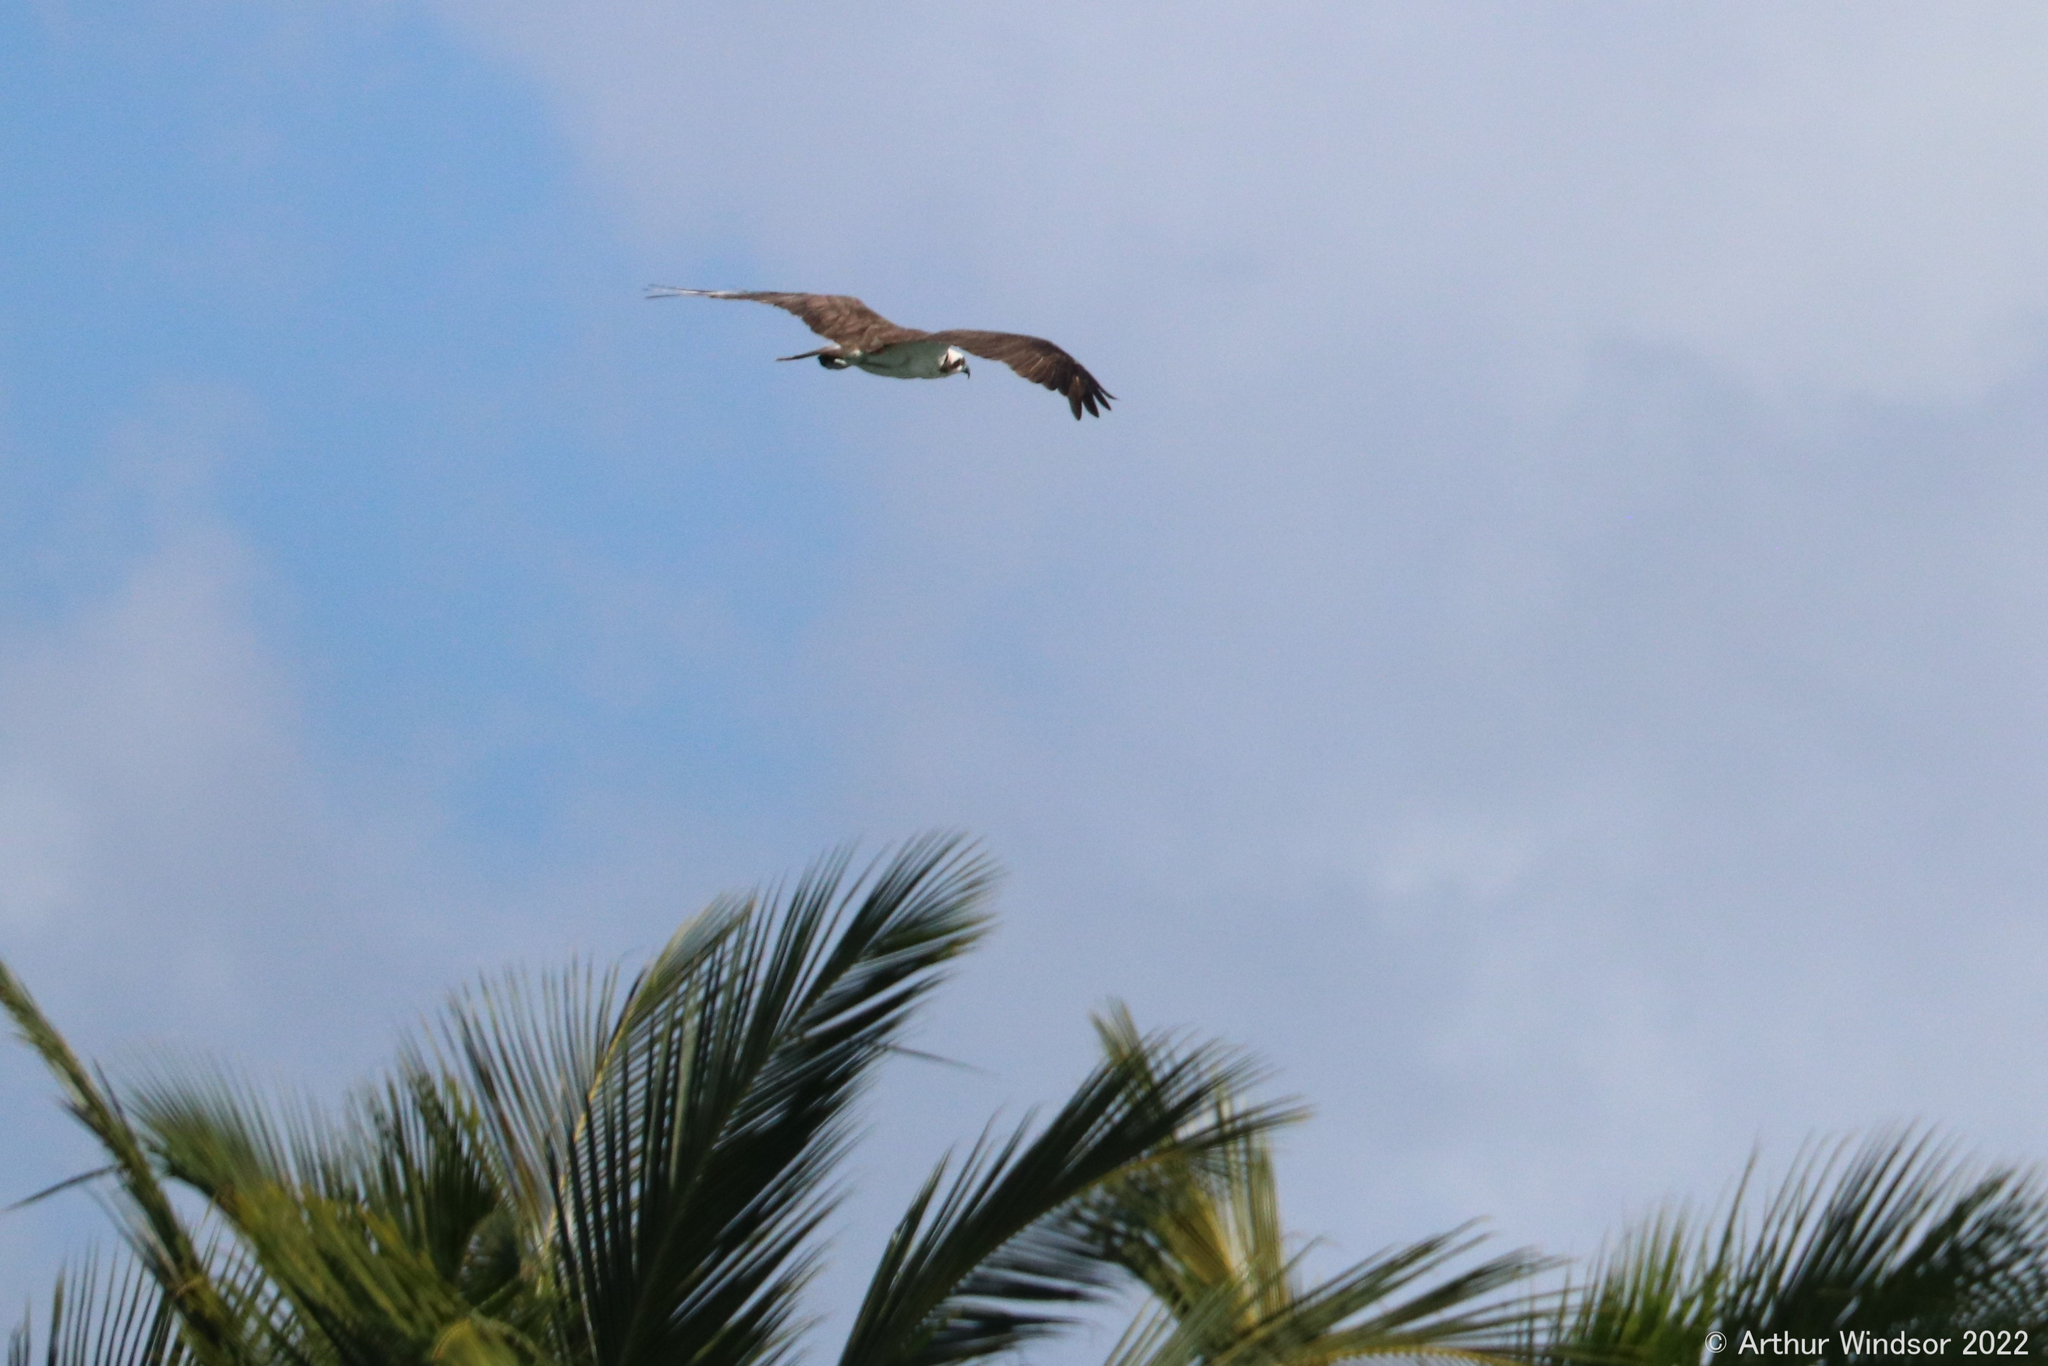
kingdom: Animalia
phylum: Chordata
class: Aves
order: Accipitriformes
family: Pandionidae
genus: Pandion
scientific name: Pandion haliaetus
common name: Osprey
